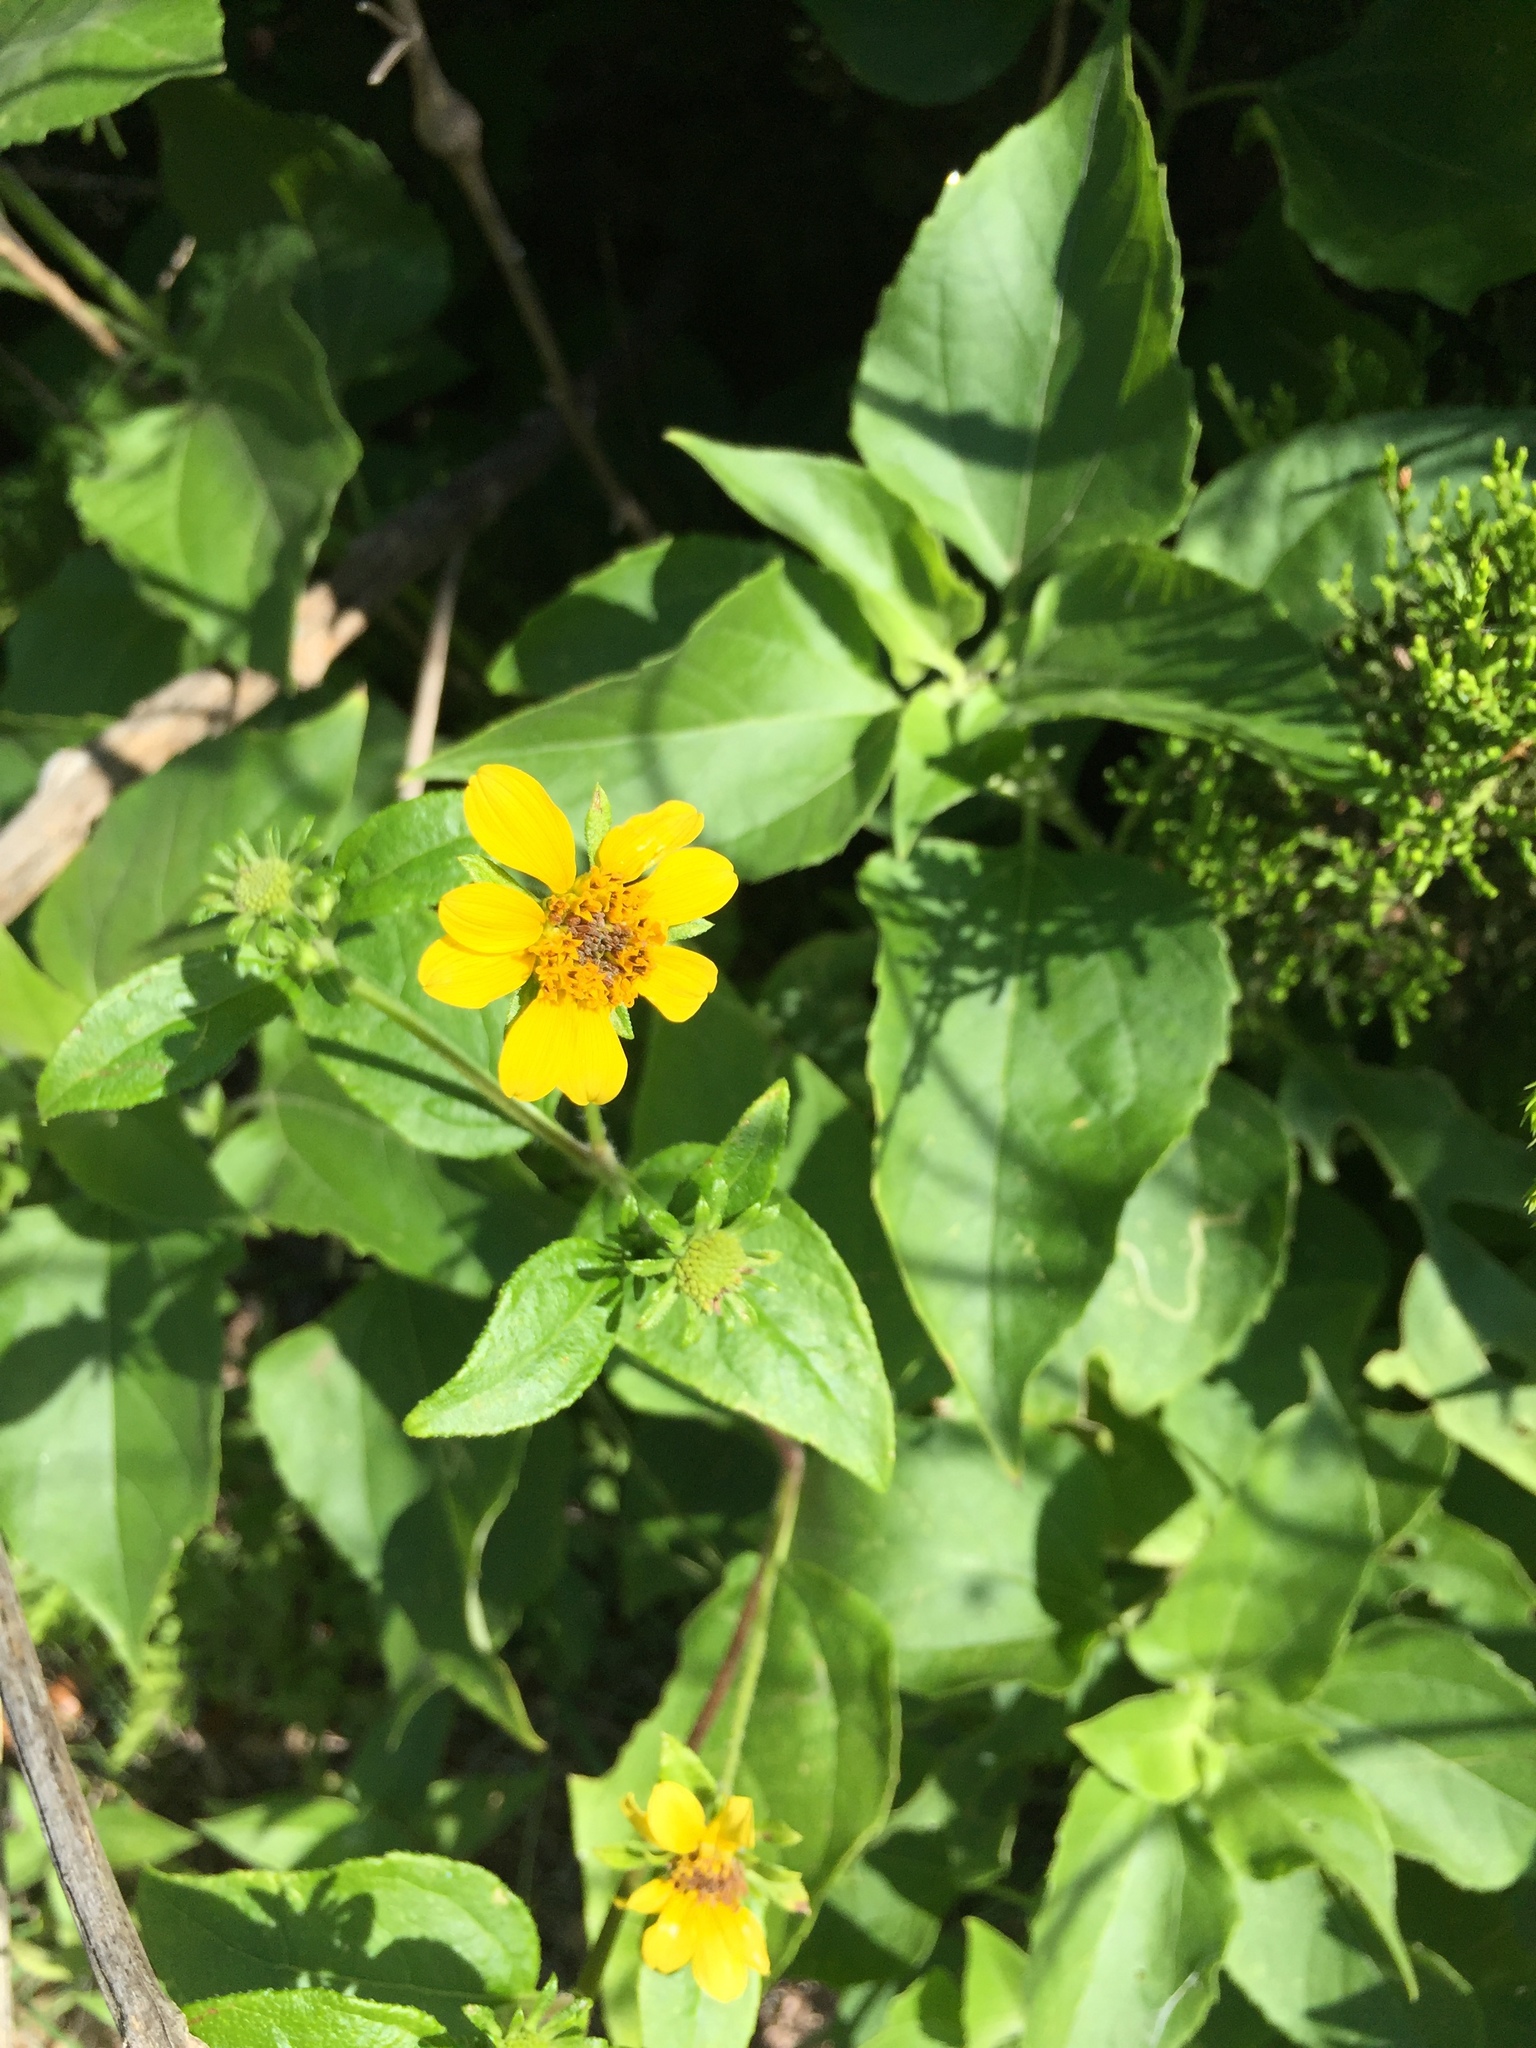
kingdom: Plantae
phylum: Tracheophyta
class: Magnoliopsida
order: Asterales
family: Asteraceae
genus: Viguiera
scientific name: Viguiera dentata
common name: Toothleaf
